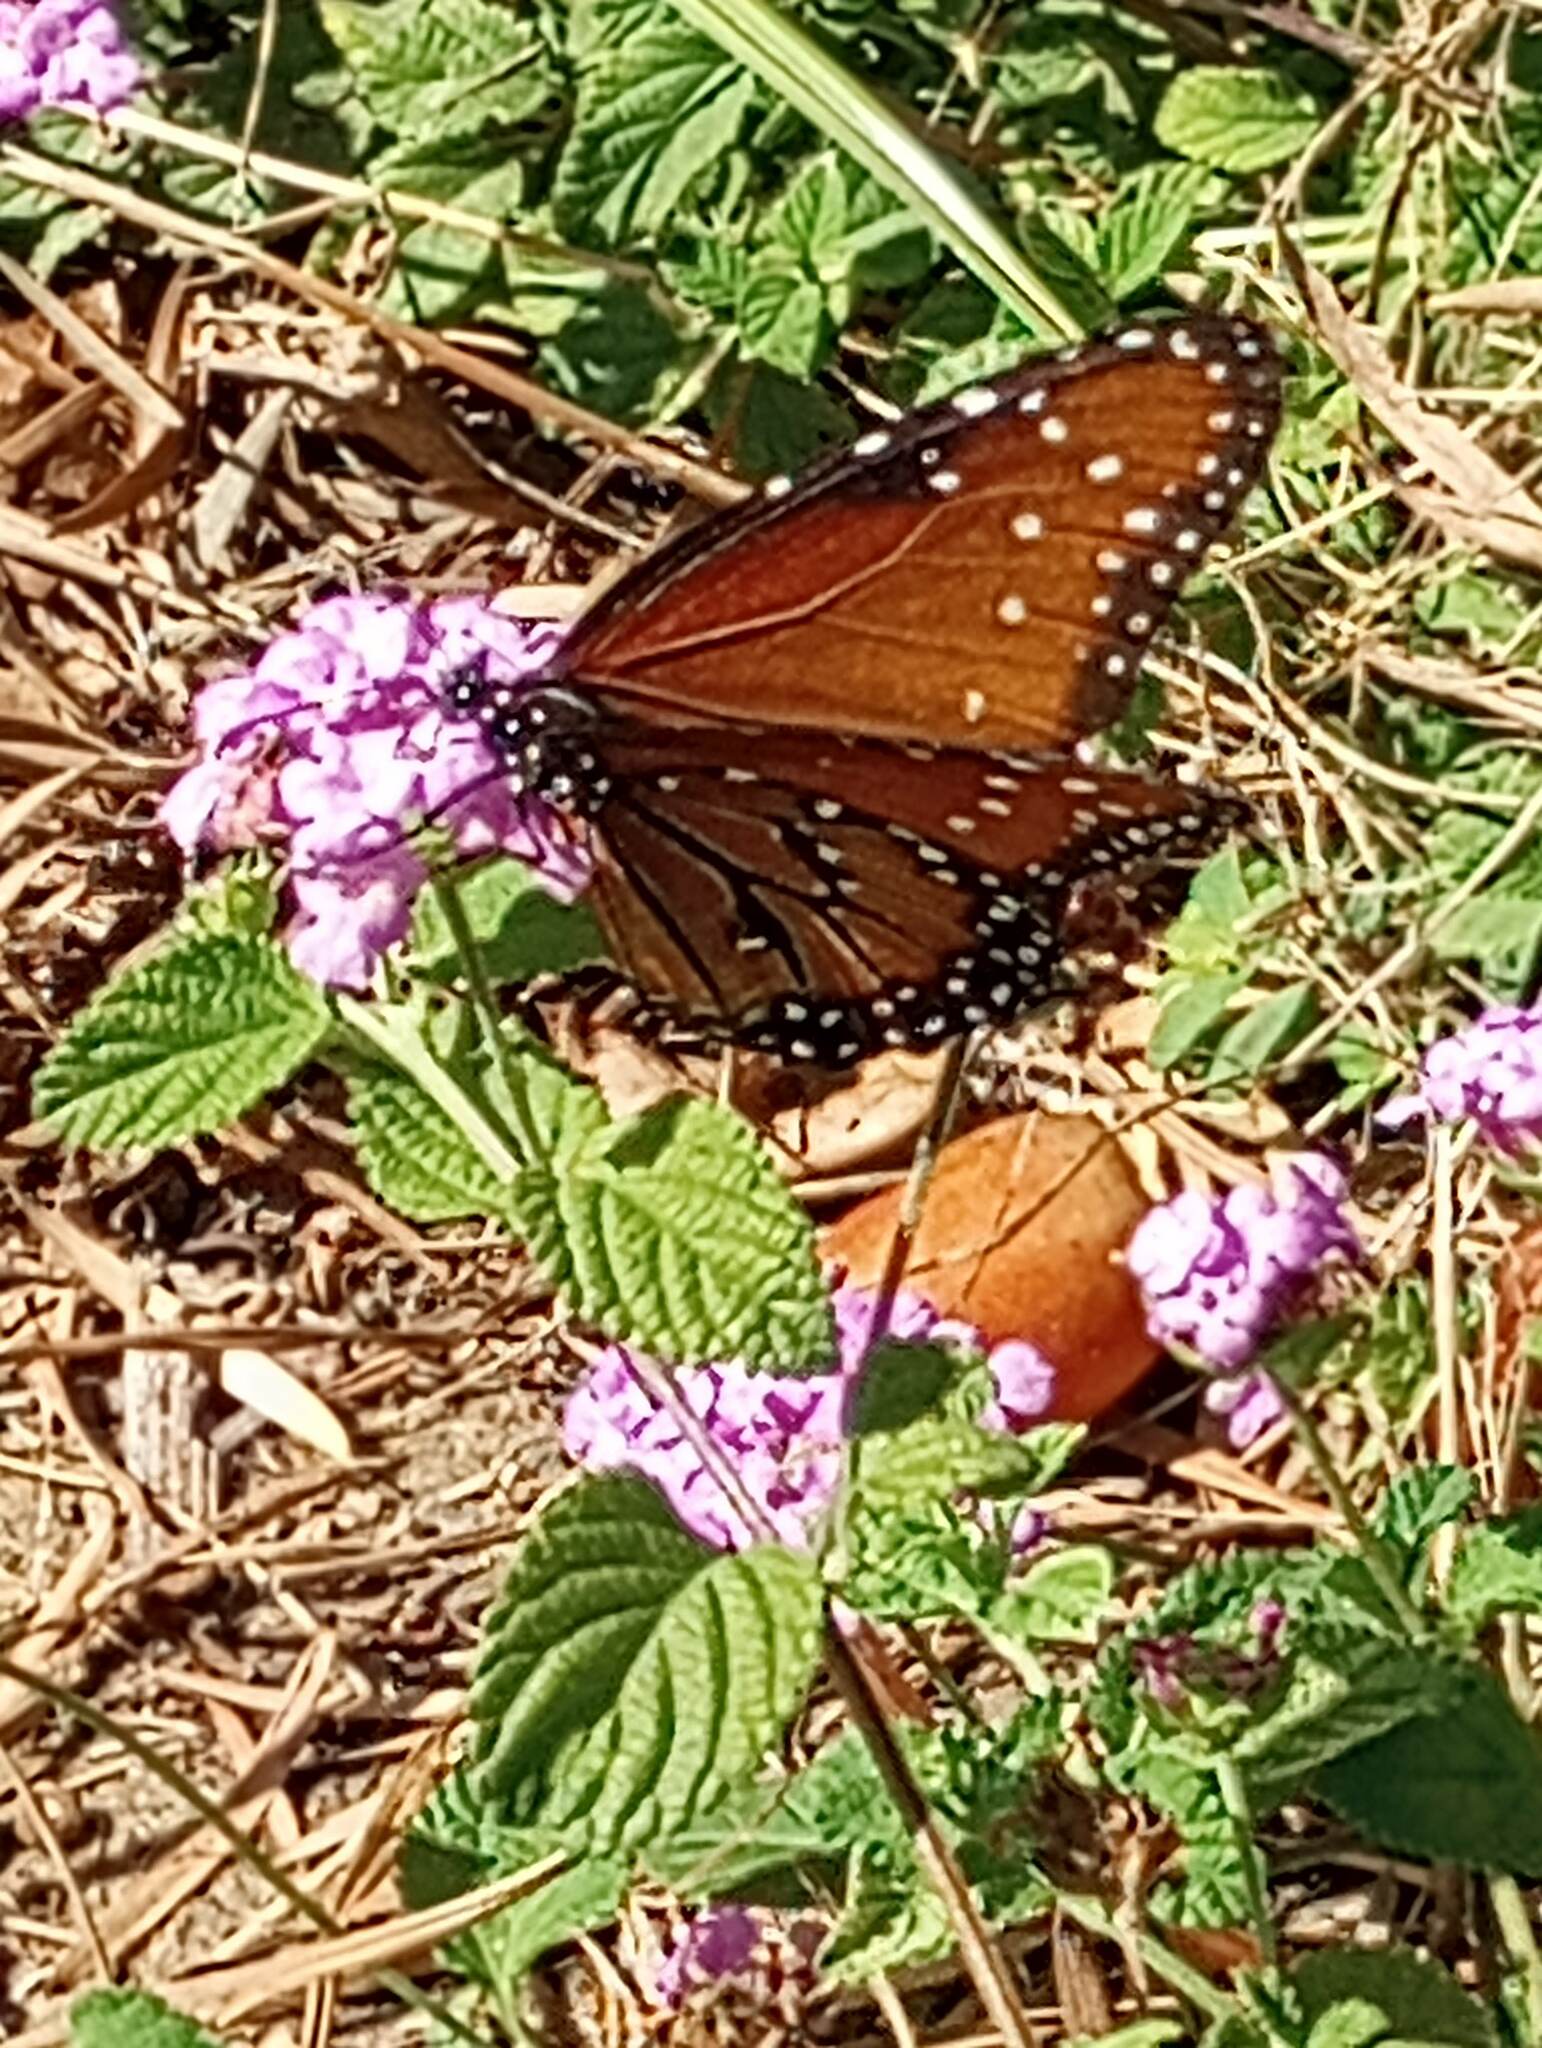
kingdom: Animalia
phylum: Arthropoda
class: Insecta
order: Lepidoptera
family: Nymphalidae
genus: Danaus
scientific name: Danaus gilippus
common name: Queen
